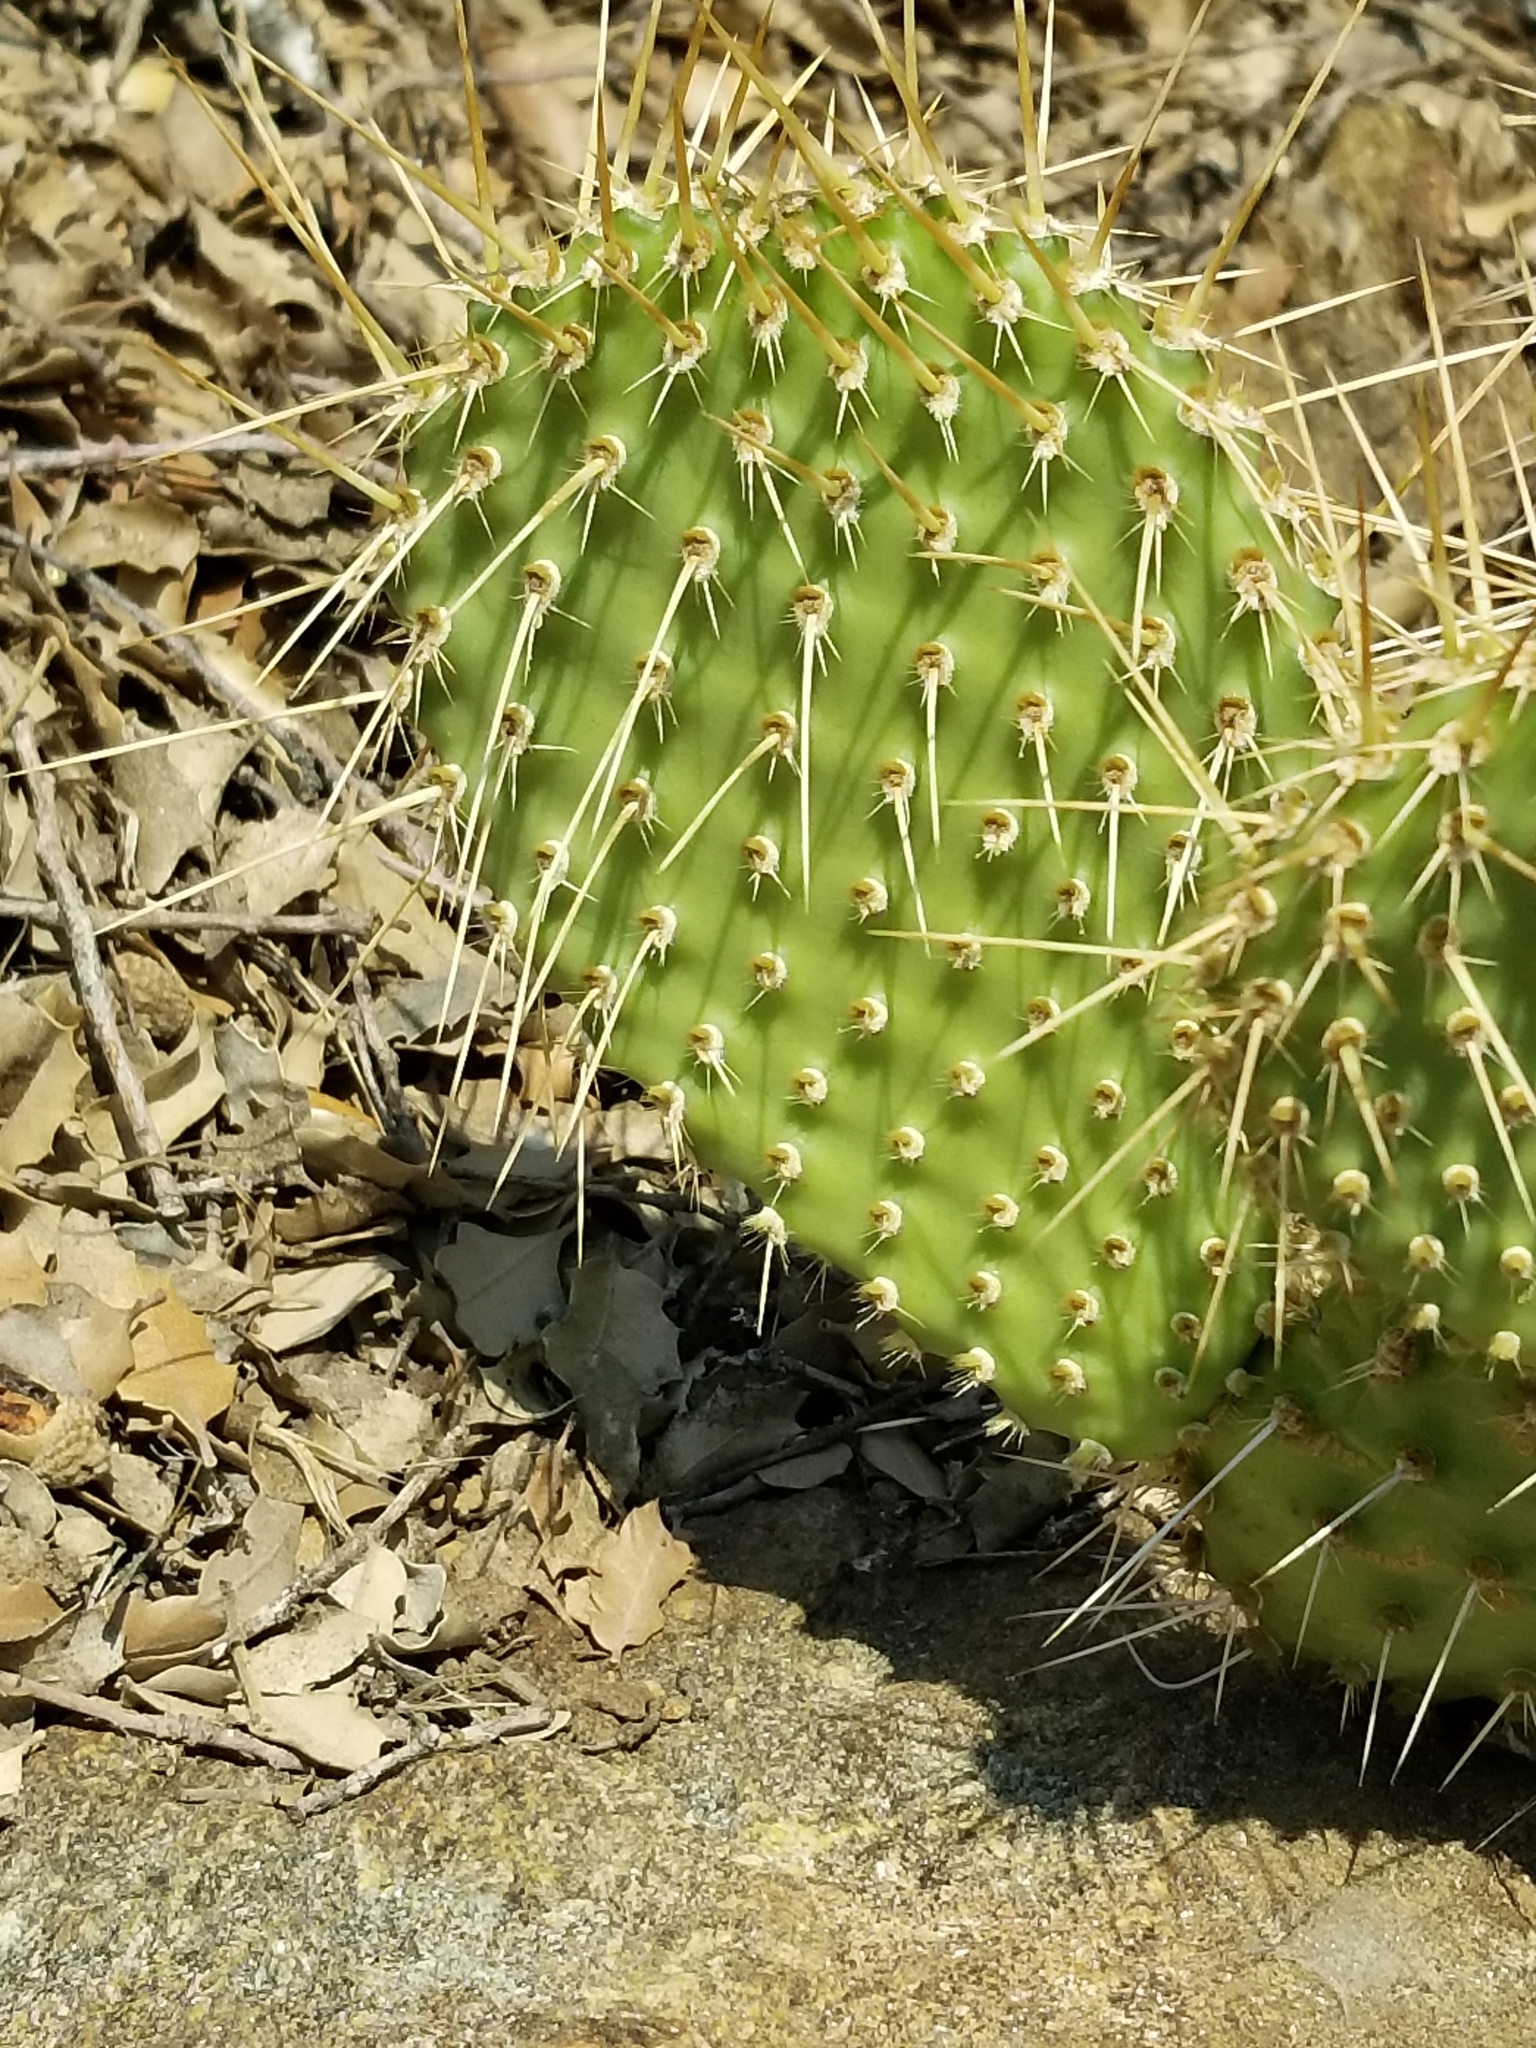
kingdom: Plantae
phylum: Tracheophyta
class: Magnoliopsida
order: Caryophyllales
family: Cactaceae
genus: Opuntia
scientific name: Opuntia polyacantha
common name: Plains prickly-pear
